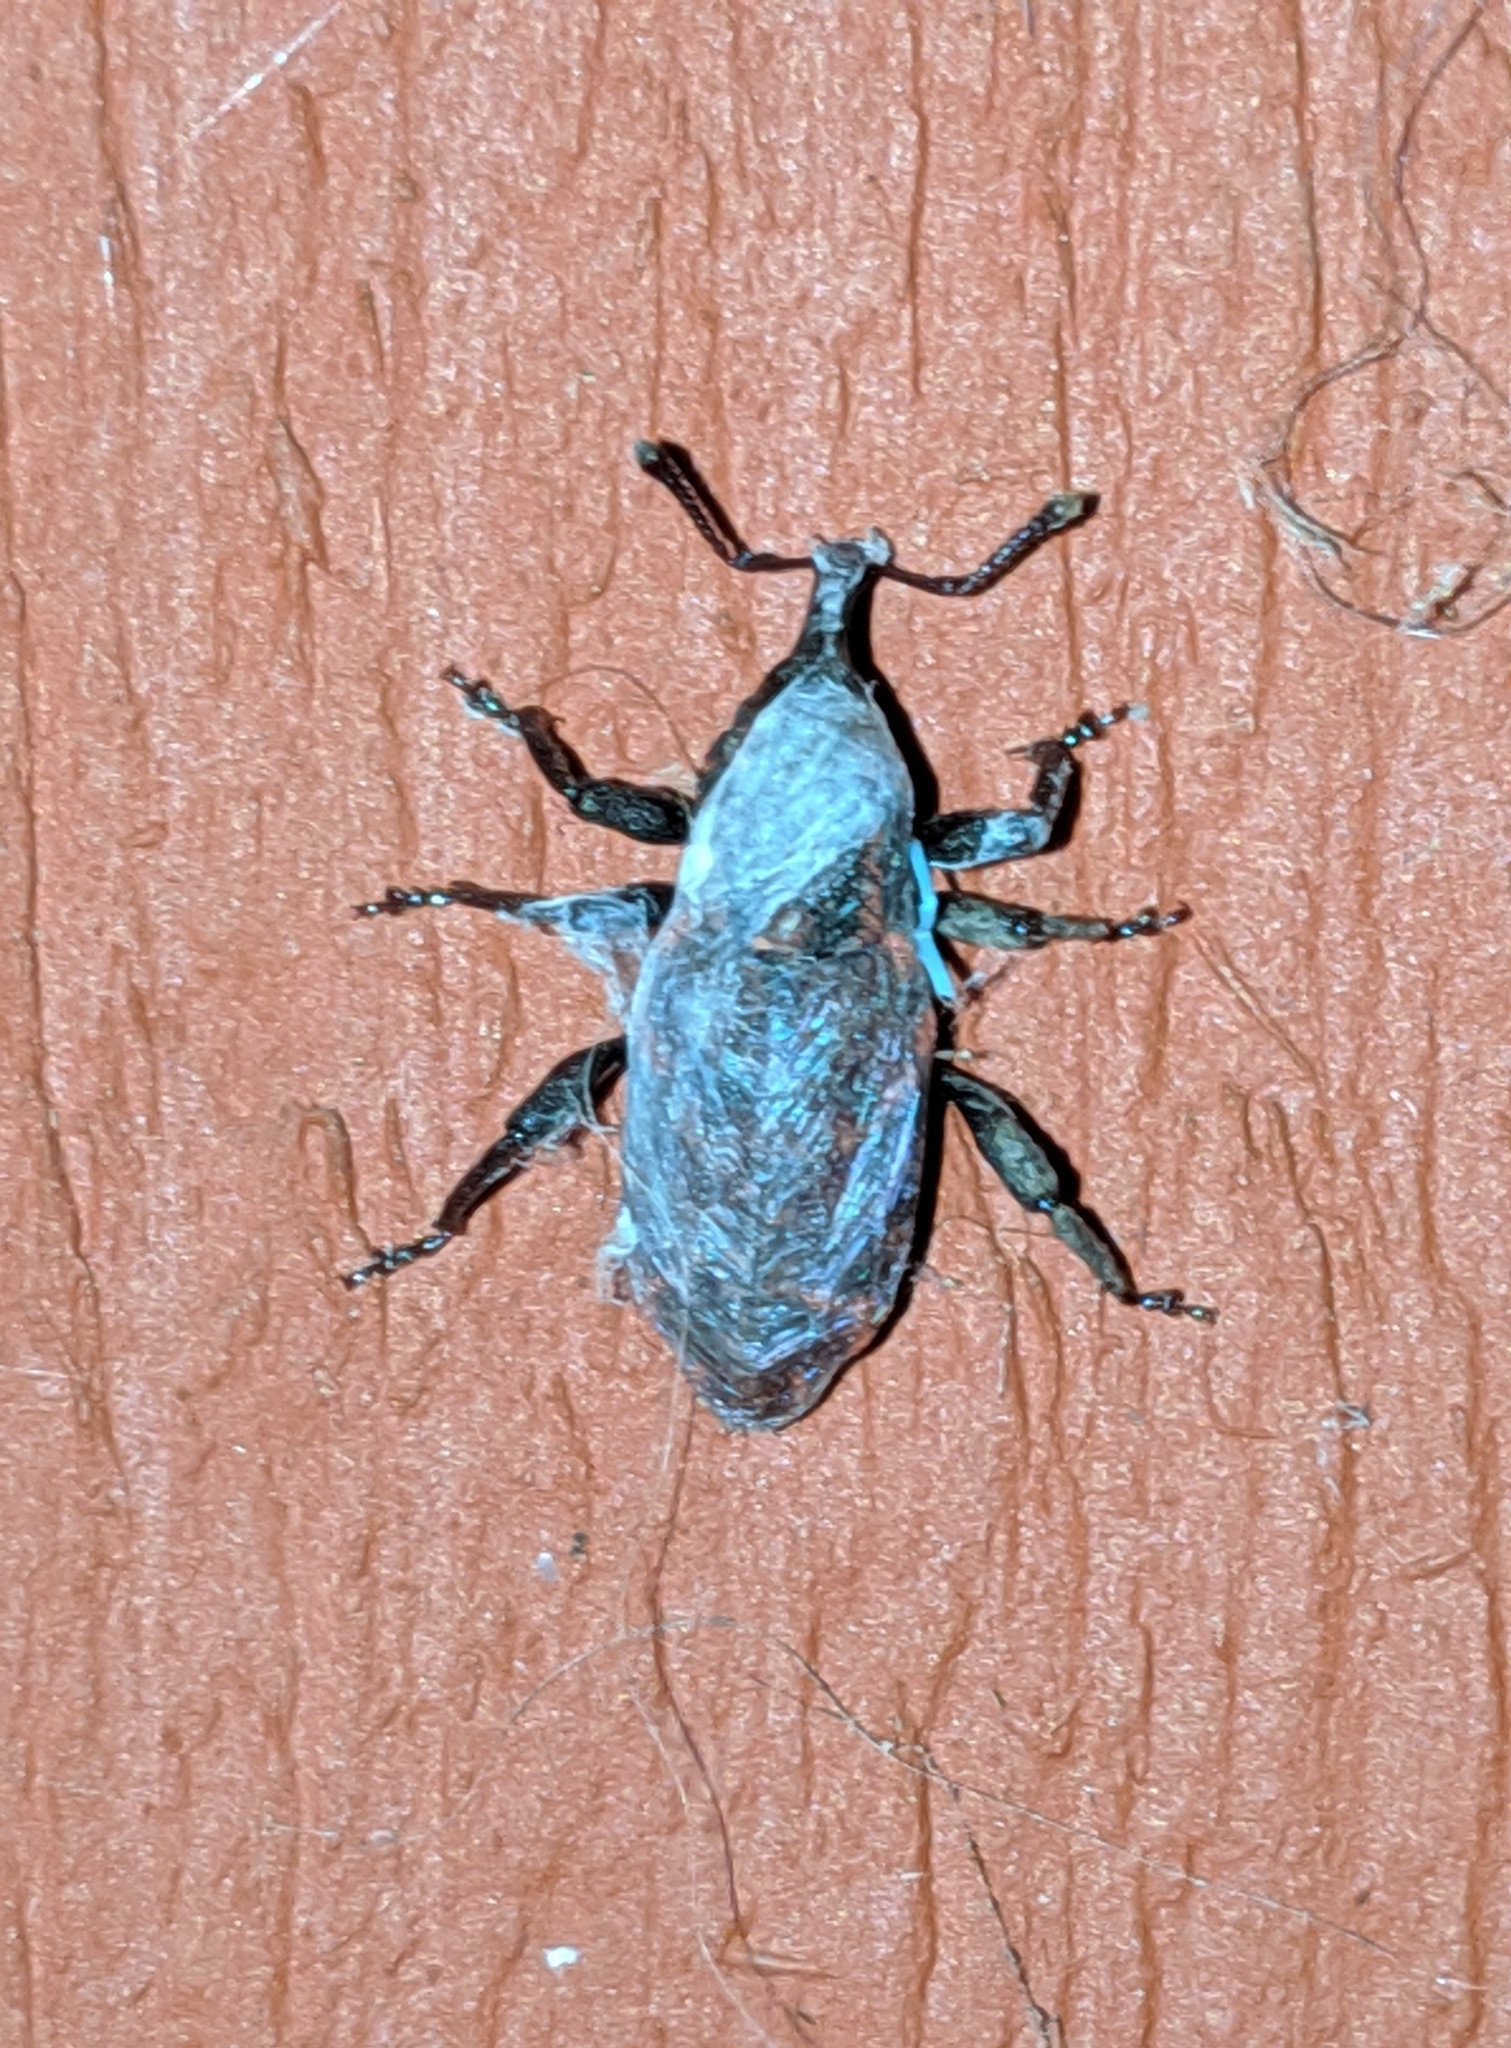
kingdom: Animalia
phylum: Arthropoda
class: Insecta
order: Coleoptera
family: Curculionidae
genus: Steremnius
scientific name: Steremnius carinatus
